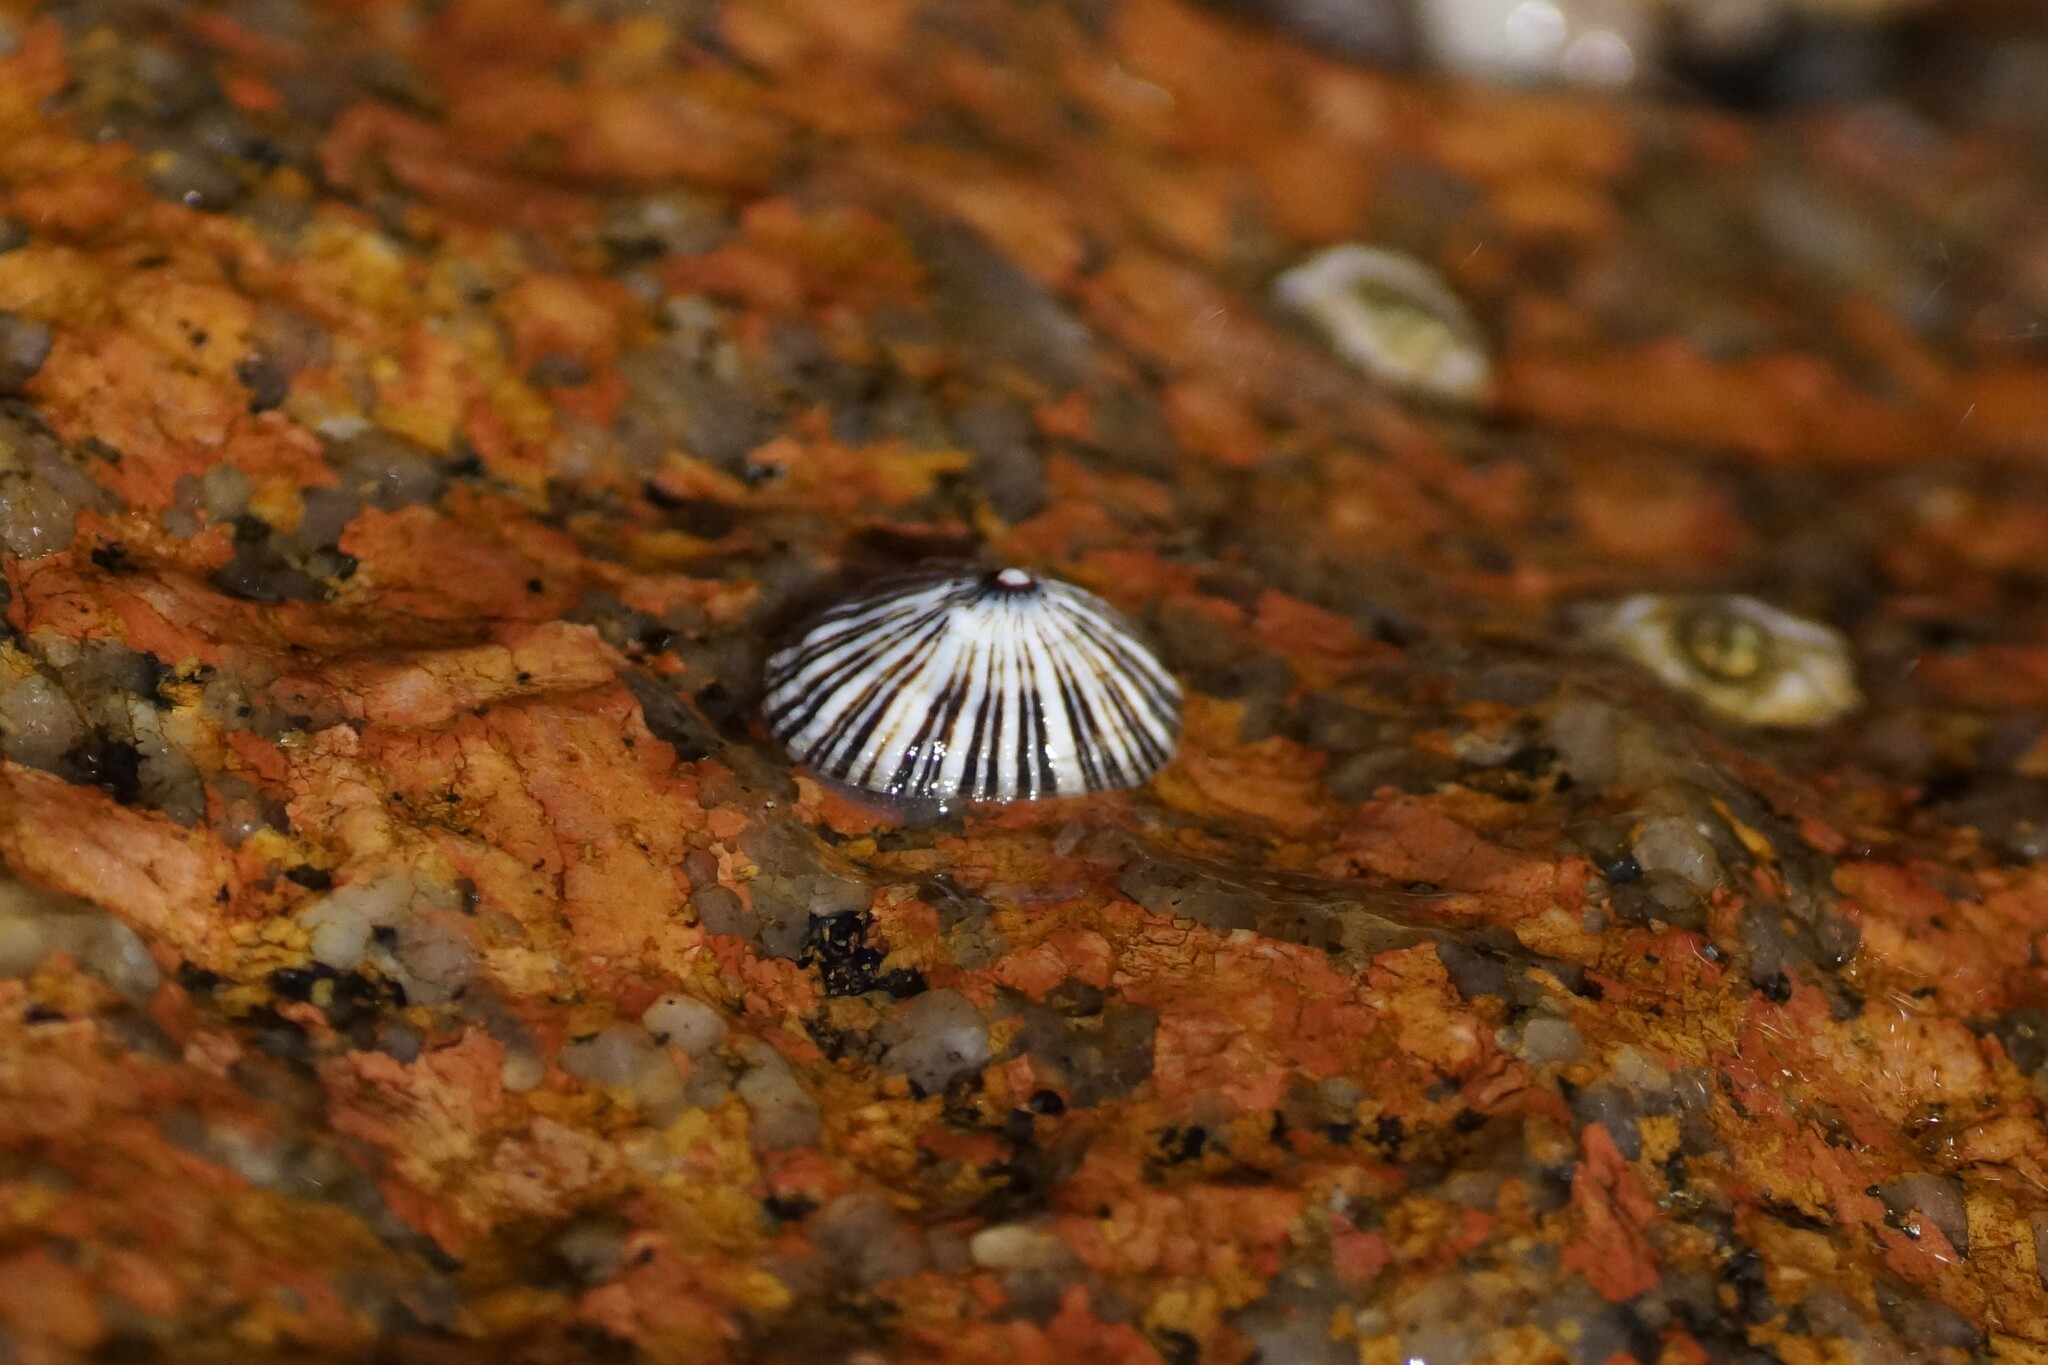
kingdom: Animalia
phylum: Mollusca
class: Gastropoda
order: Siphonariida
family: Siphonariidae
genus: Siphonaria
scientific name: Siphonaria funiculata
